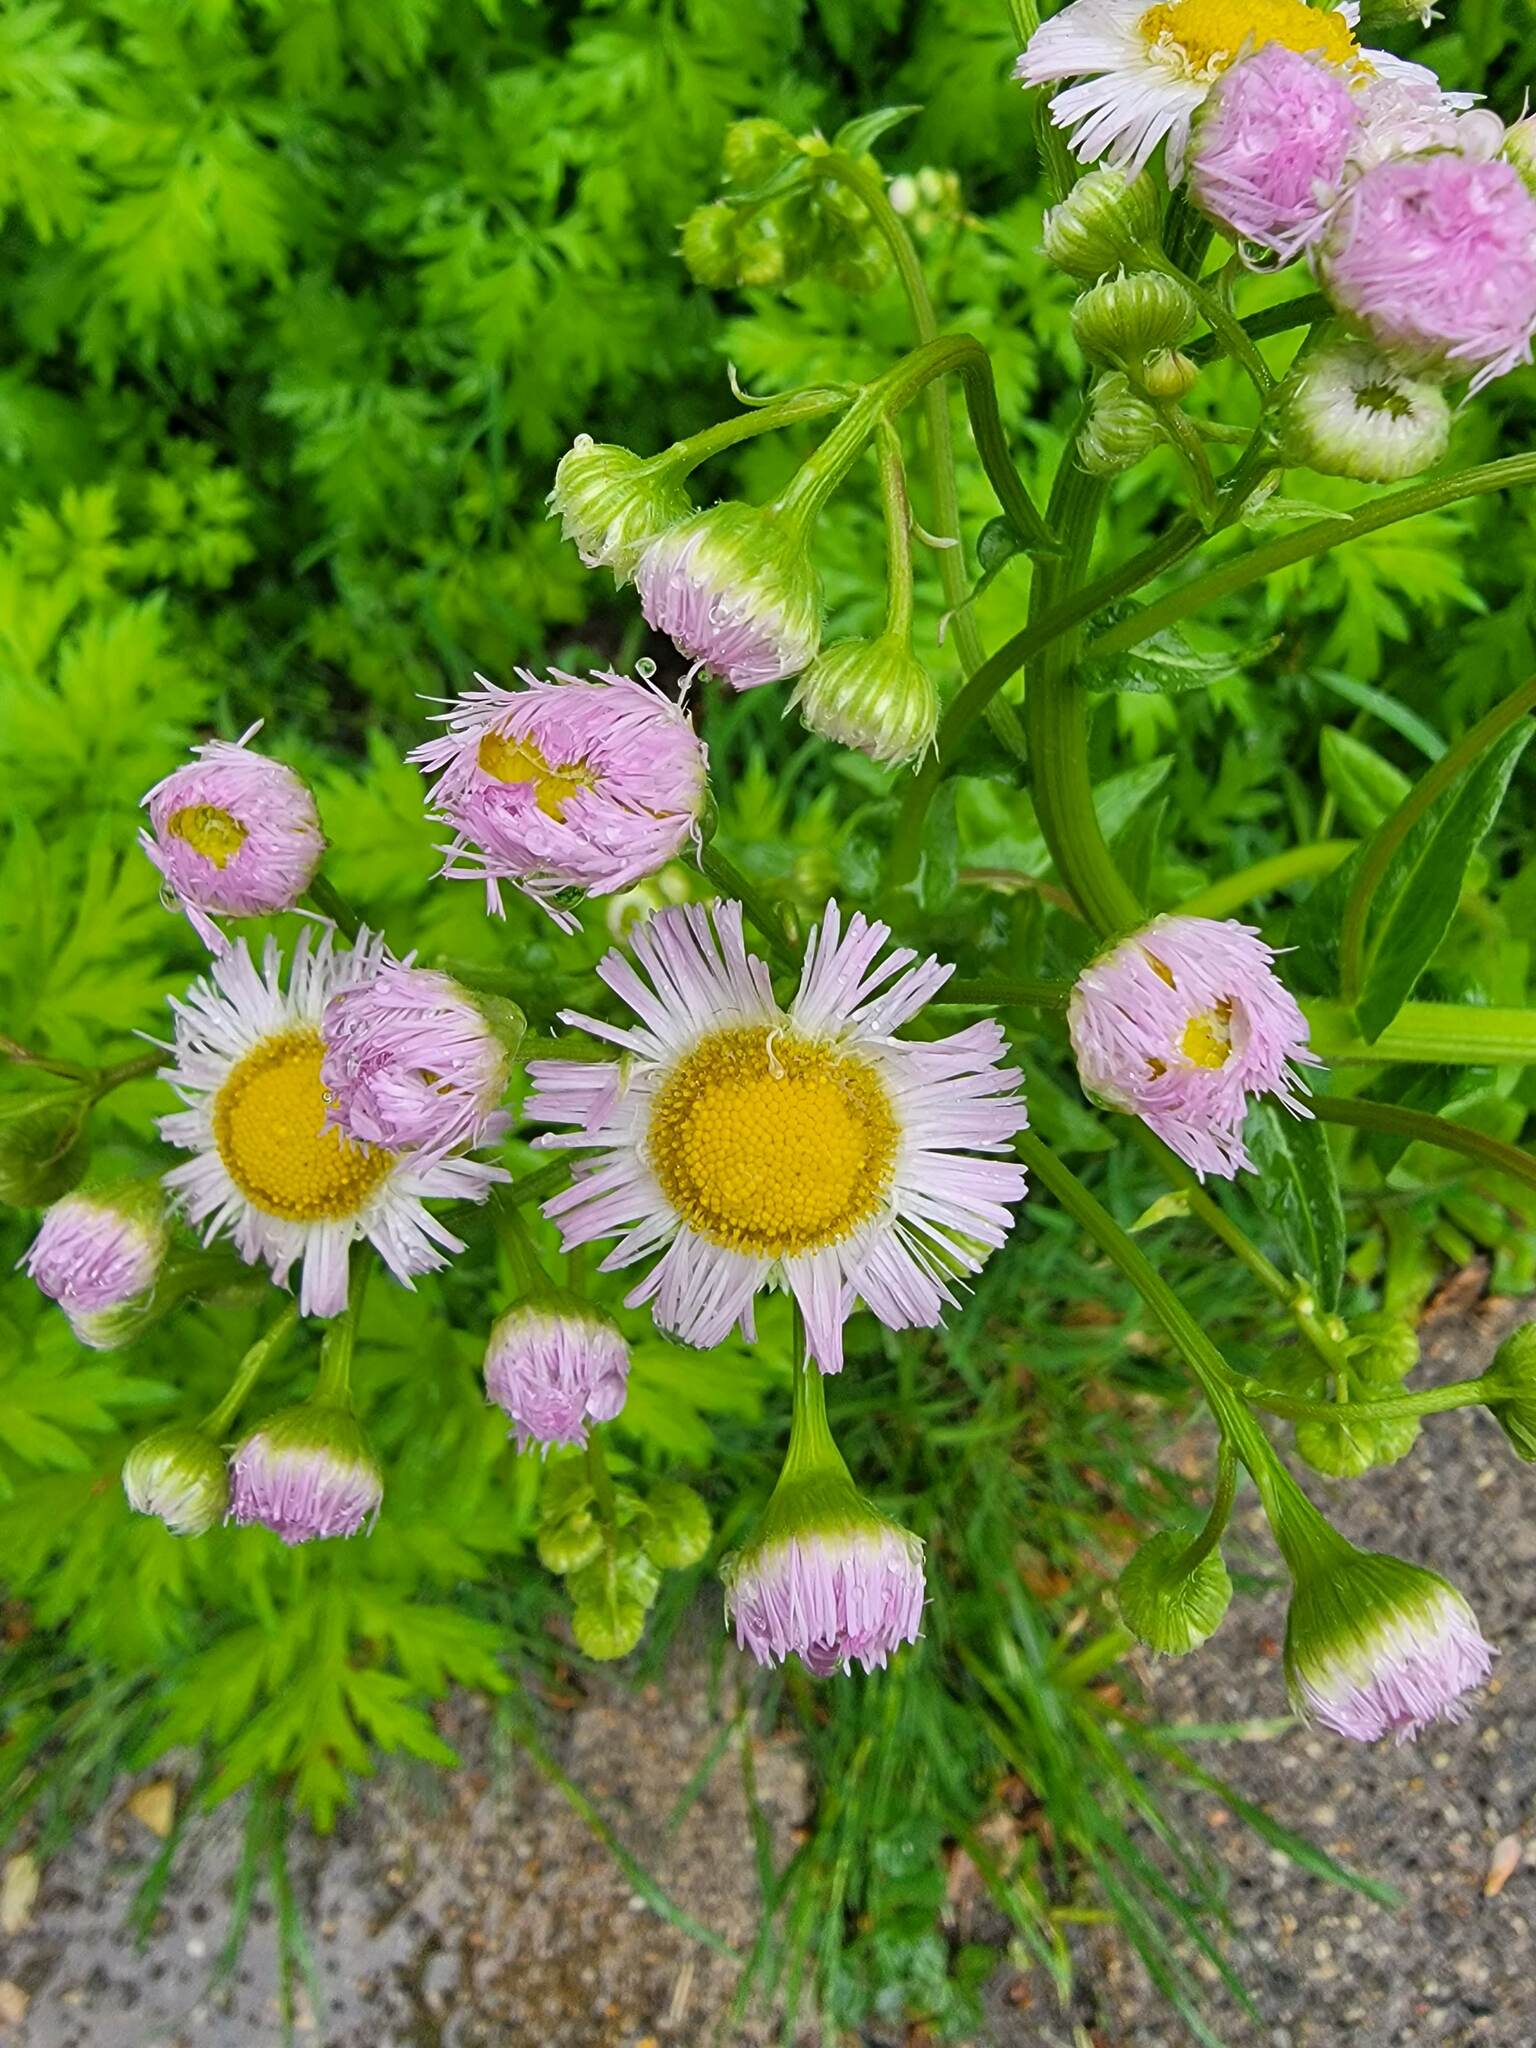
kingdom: Plantae
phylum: Tracheophyta
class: Magnoliopsida
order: Asterales
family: Asteraceae
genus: Erigeron
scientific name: Erigeron philadelphicus
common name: Robin's-plantain
